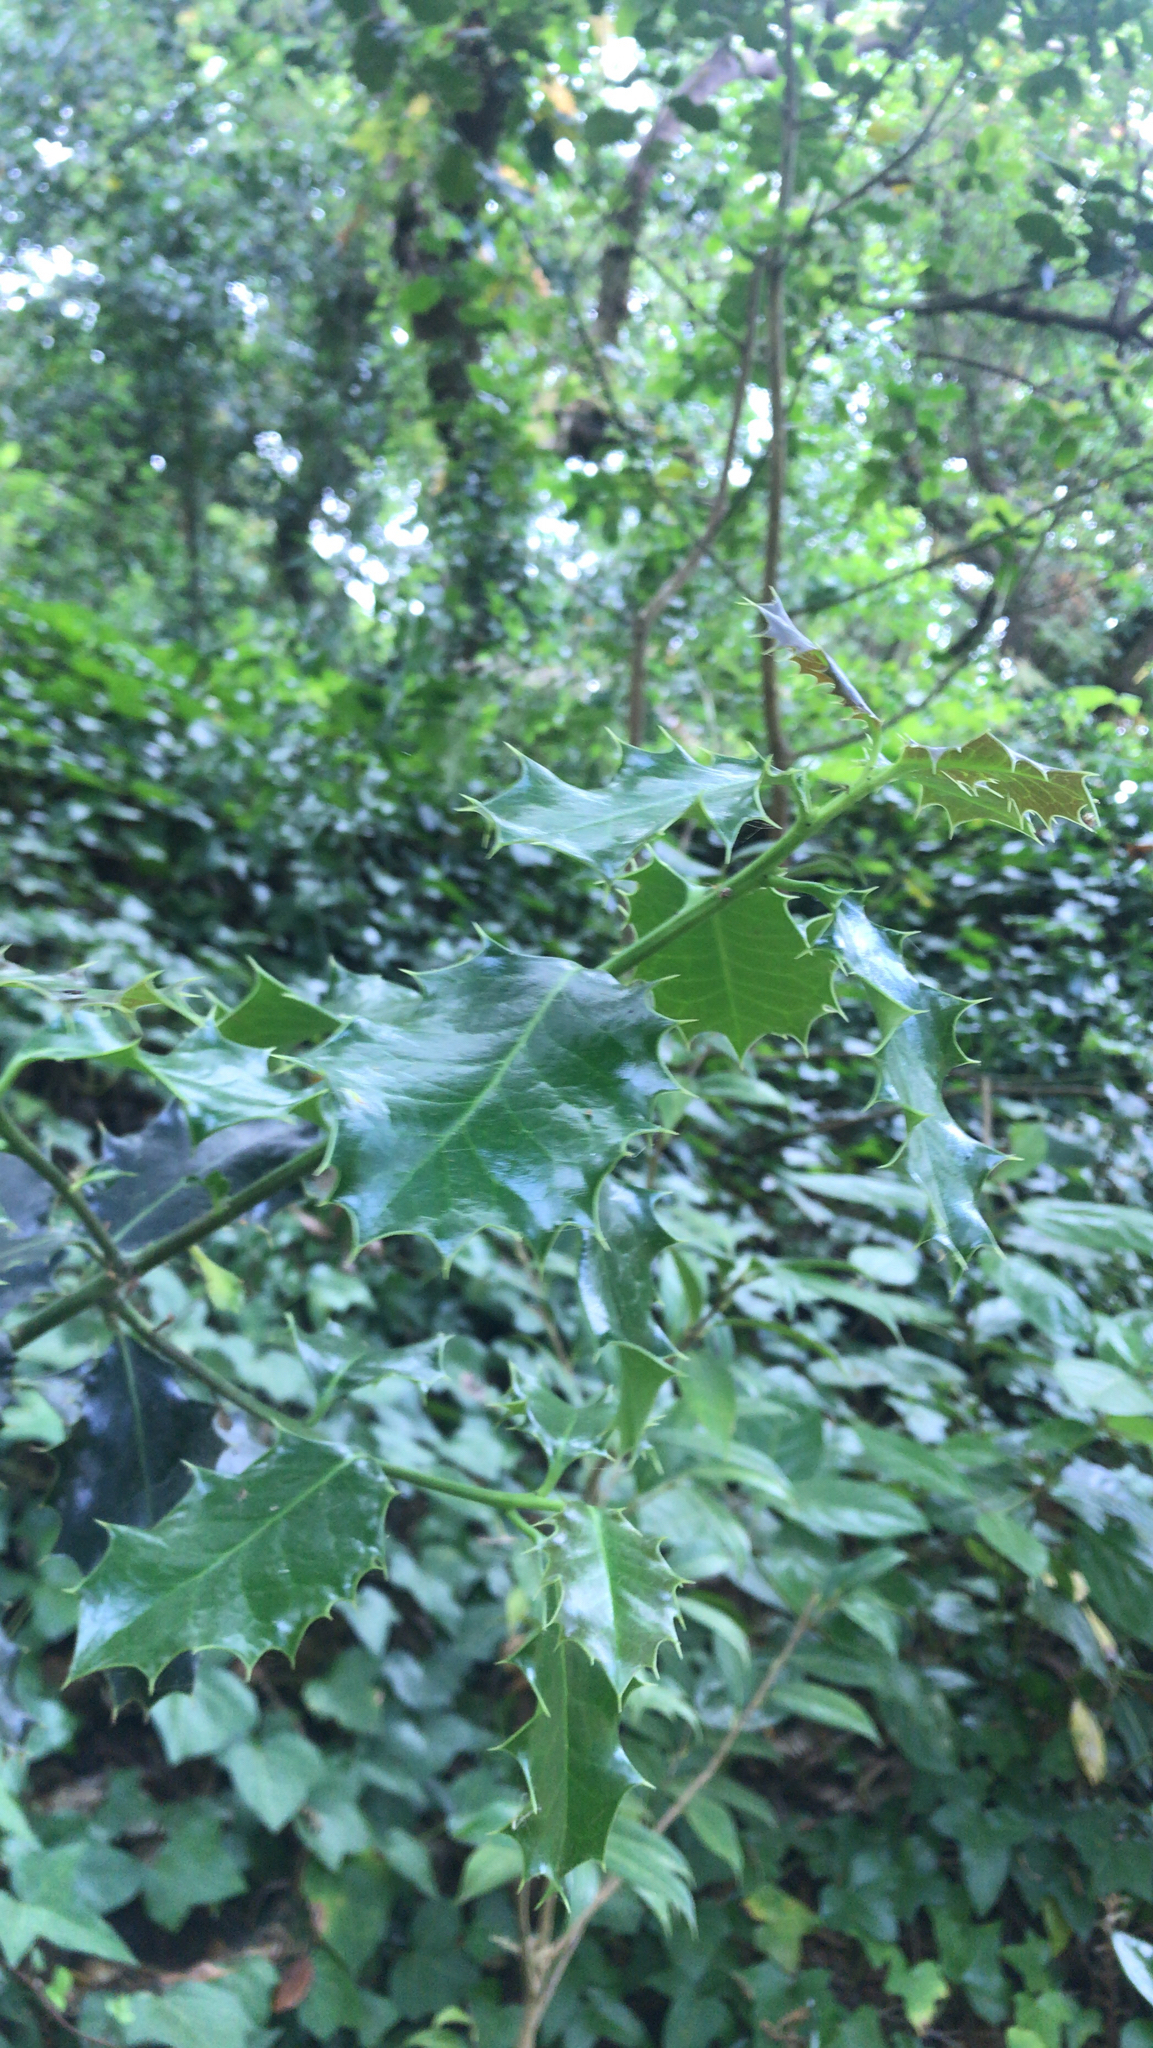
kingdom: Plantae
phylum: Tracheophyta
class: Magnoliopsida
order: Aquifoliales
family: Aquifoliaceae
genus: Ilex
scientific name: Ilex aquifolium
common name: English holly
